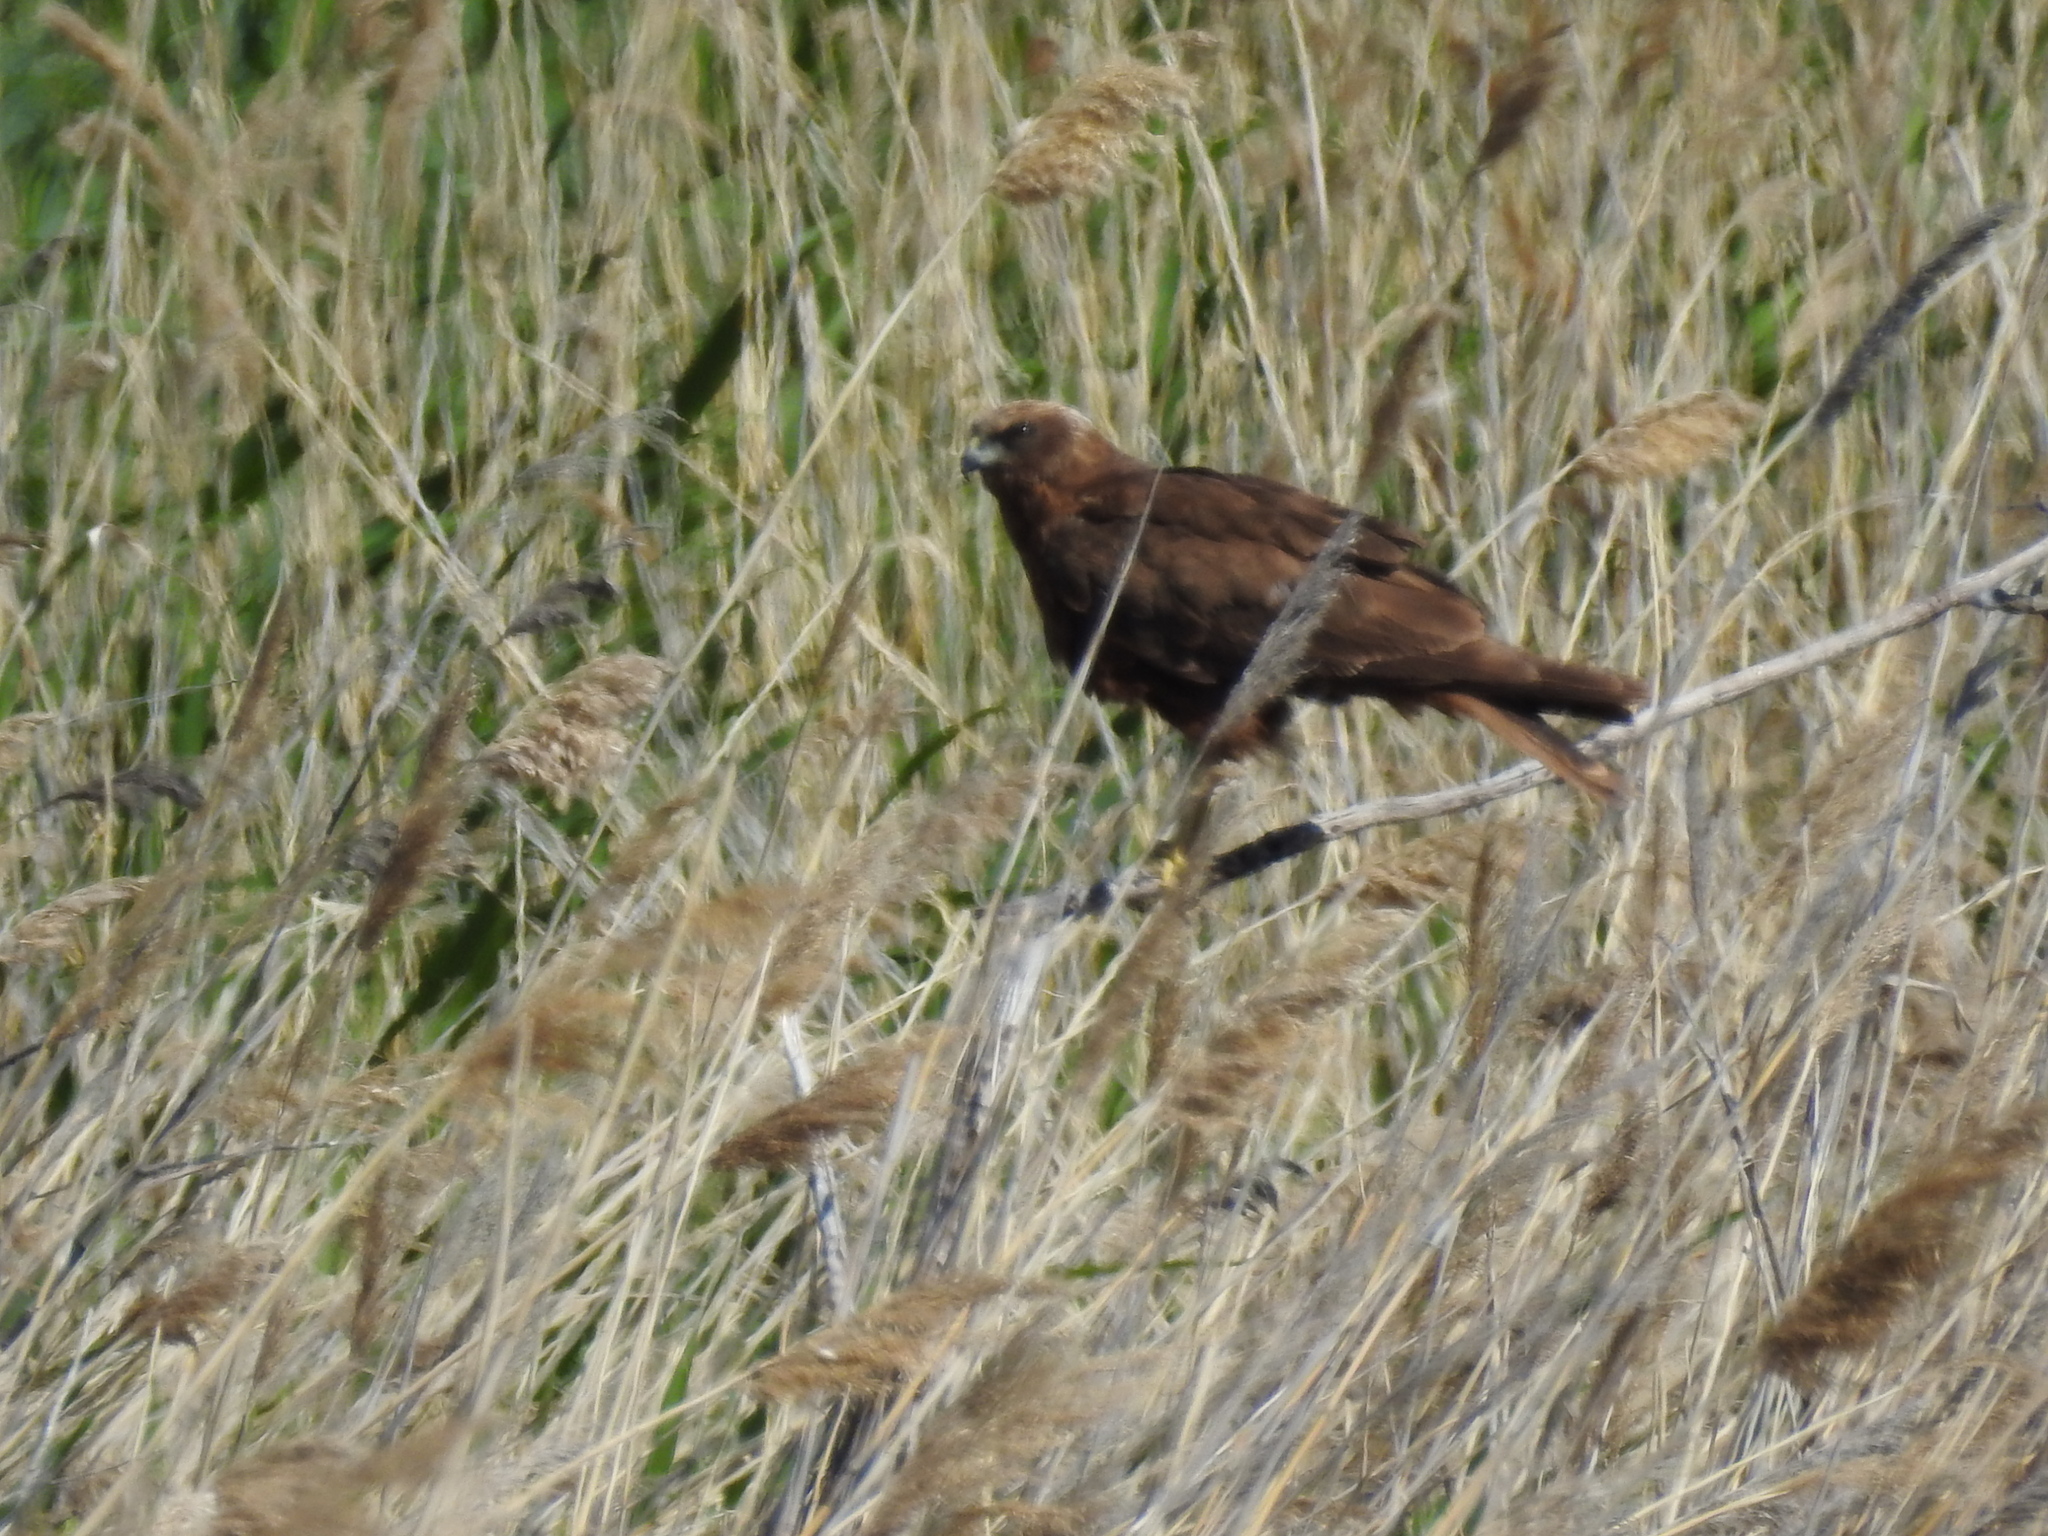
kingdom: Animalia
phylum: Chordata
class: Aves
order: Accipitriformes
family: Accipitridae
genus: Circus
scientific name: Circus aeruginosus
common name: Western marsh harrier
